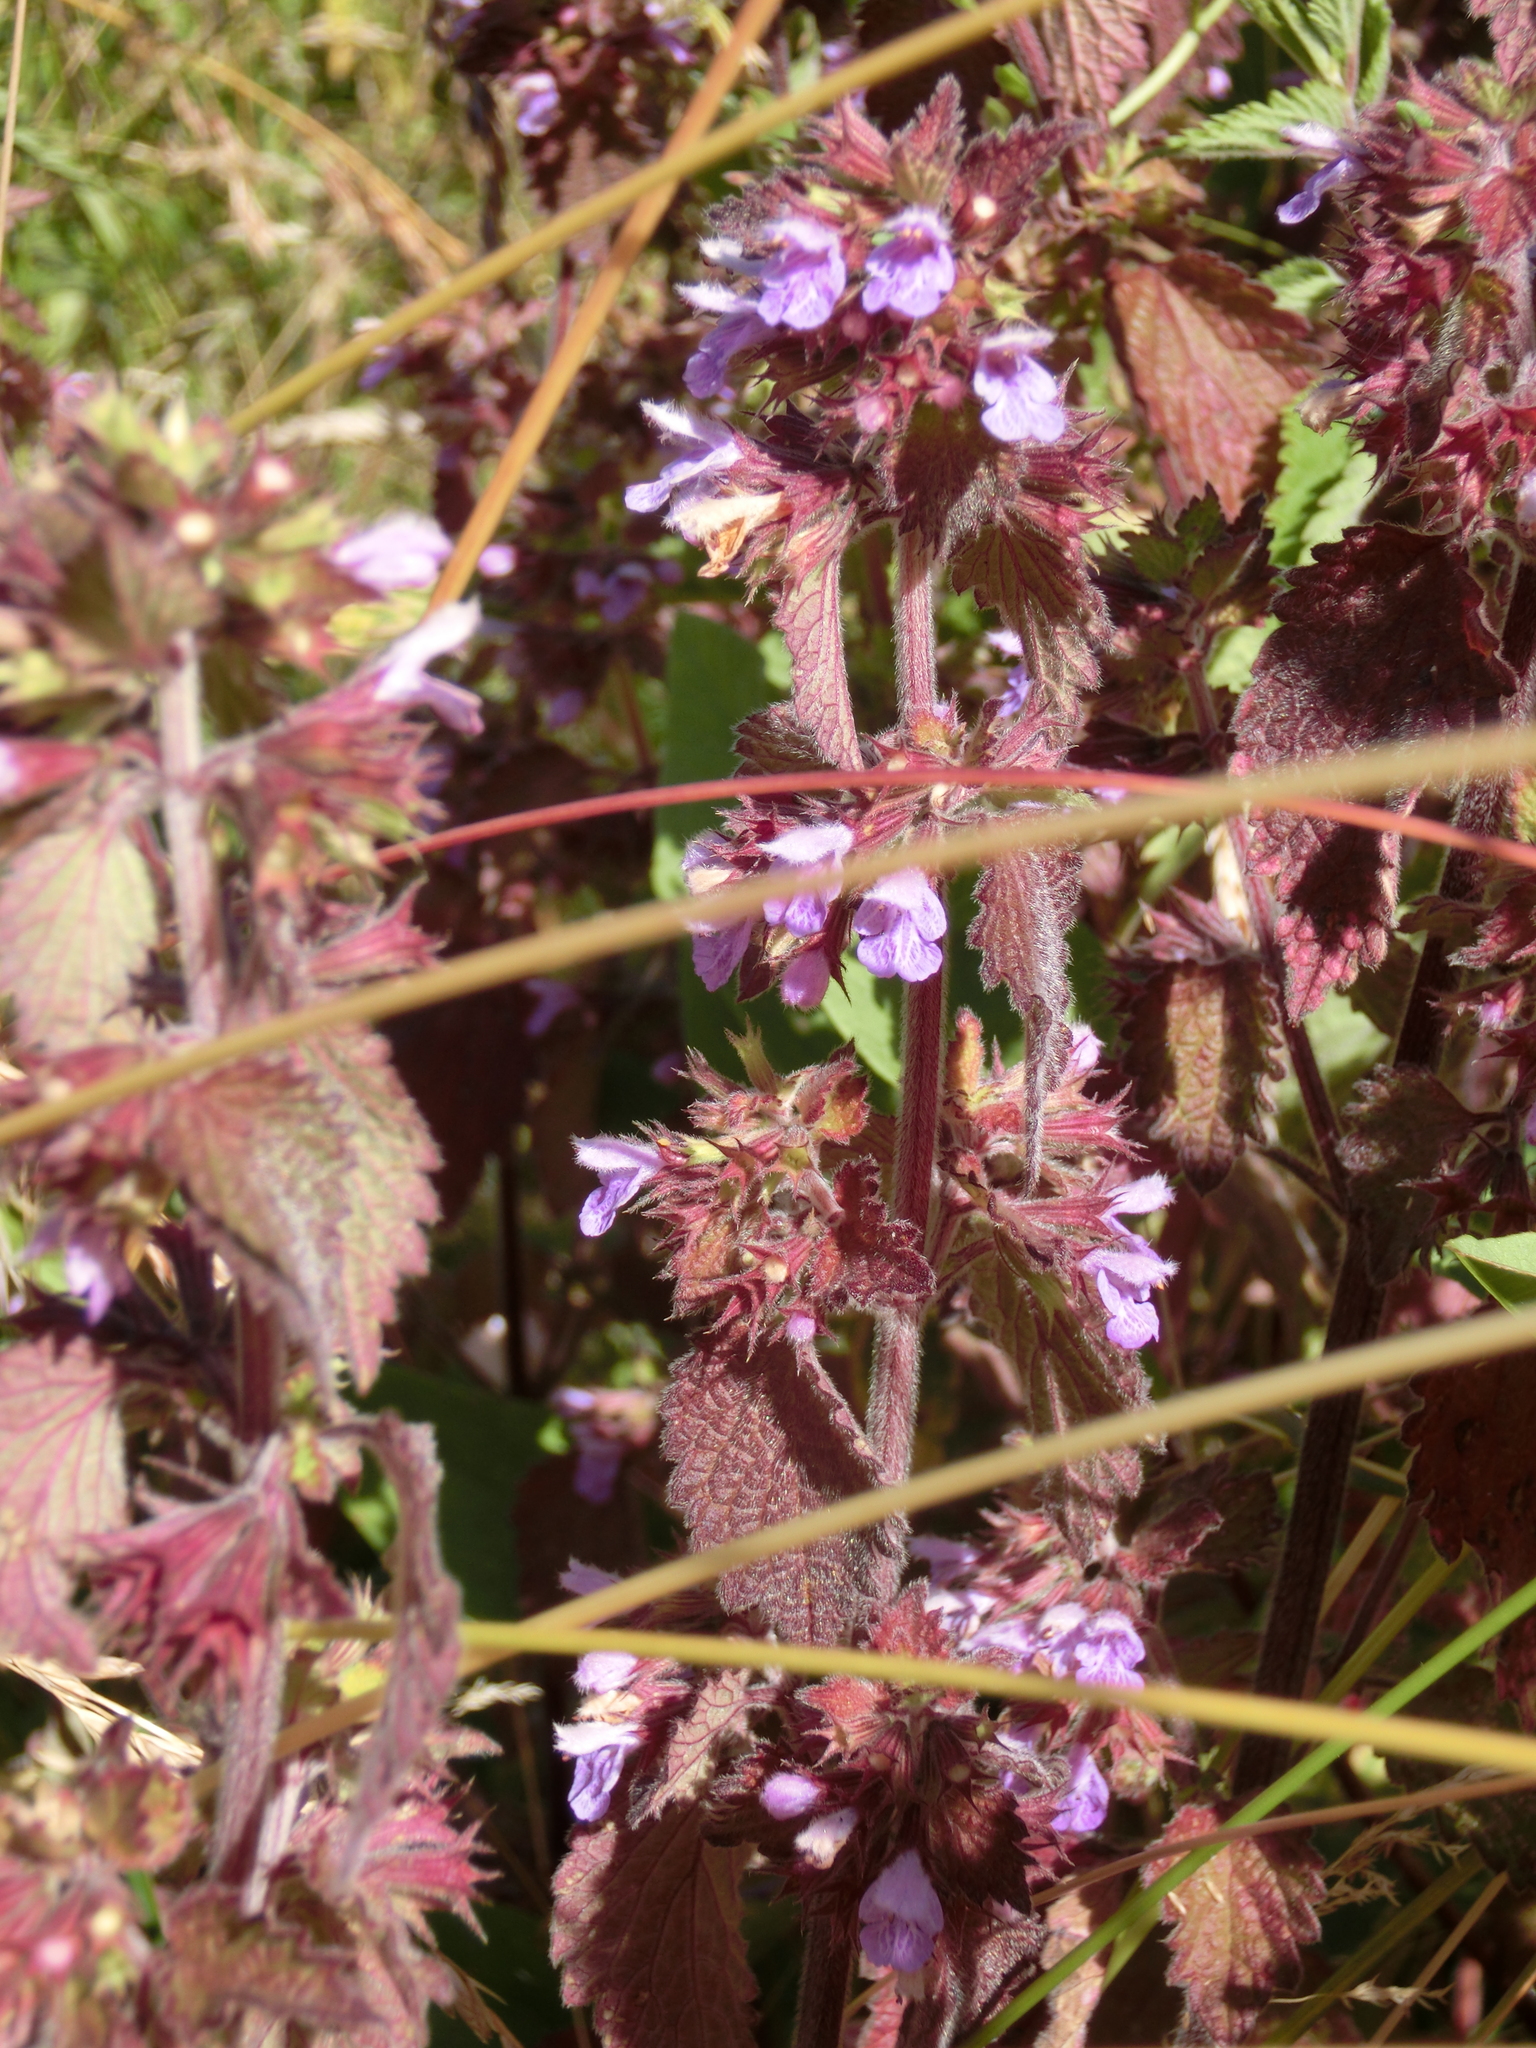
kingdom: Plantae
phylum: Tracheophyta
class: Magnoliopsida
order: Lamiales
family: Lamiaceae
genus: Ballota
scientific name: Ballota nigra
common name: Black horehound
